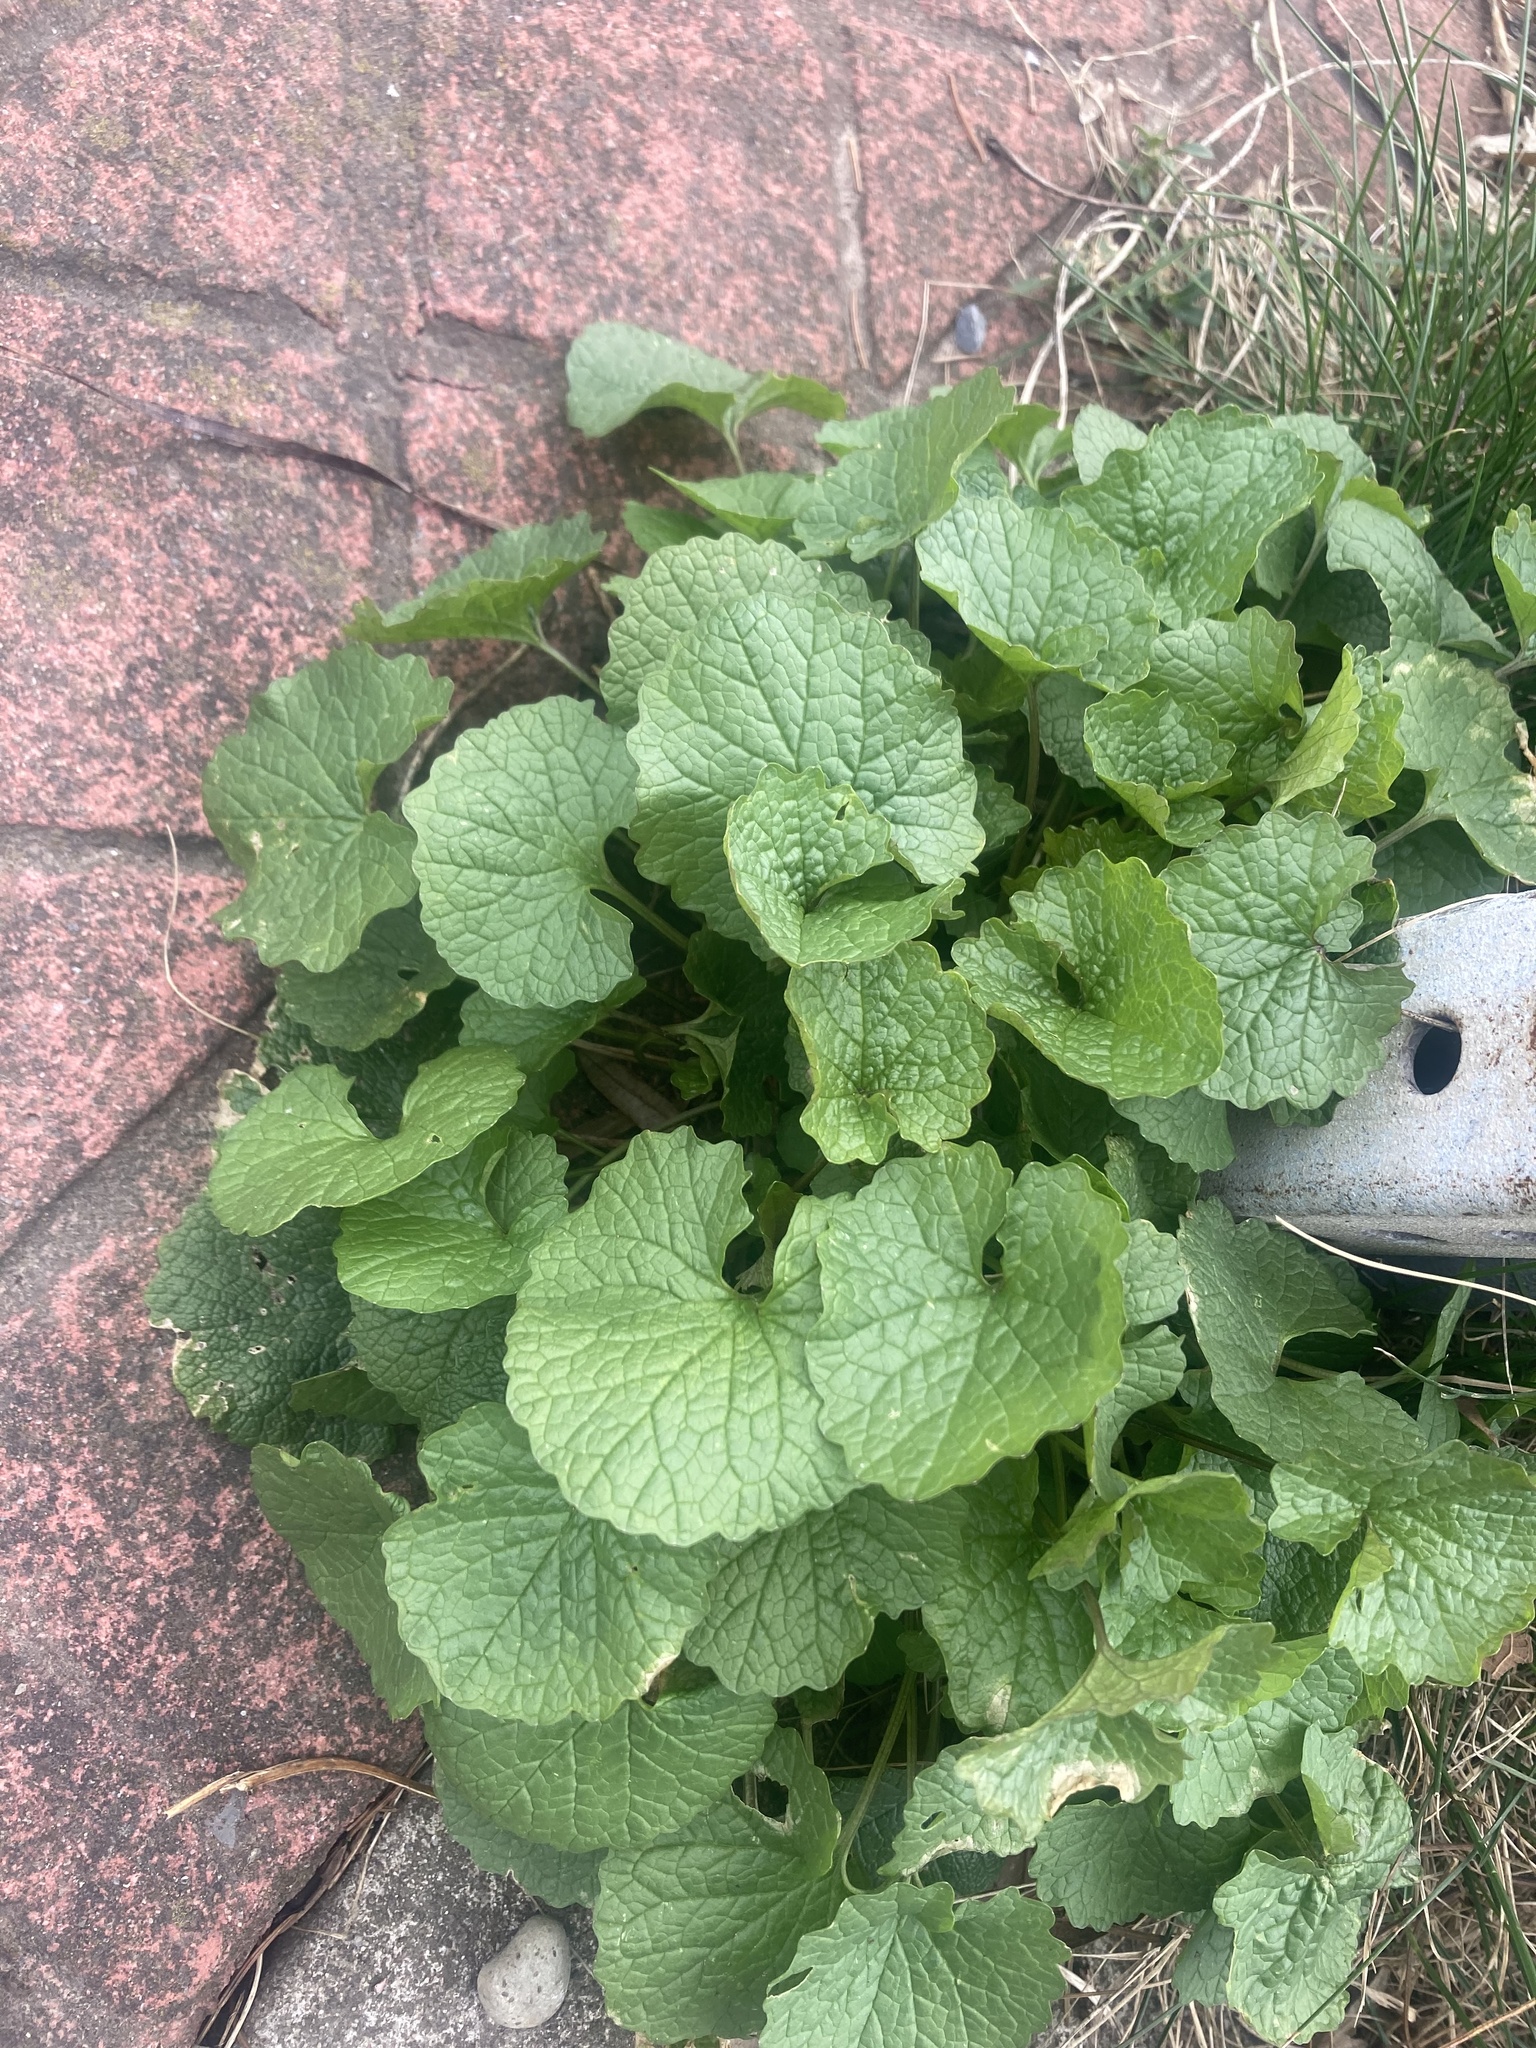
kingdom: Plantae
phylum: Tracheophyta
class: Magnoliopsida
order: Brassicales
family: Brassicaceae
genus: Alliaria
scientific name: Alliaria petiolata
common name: Garlic mustard
